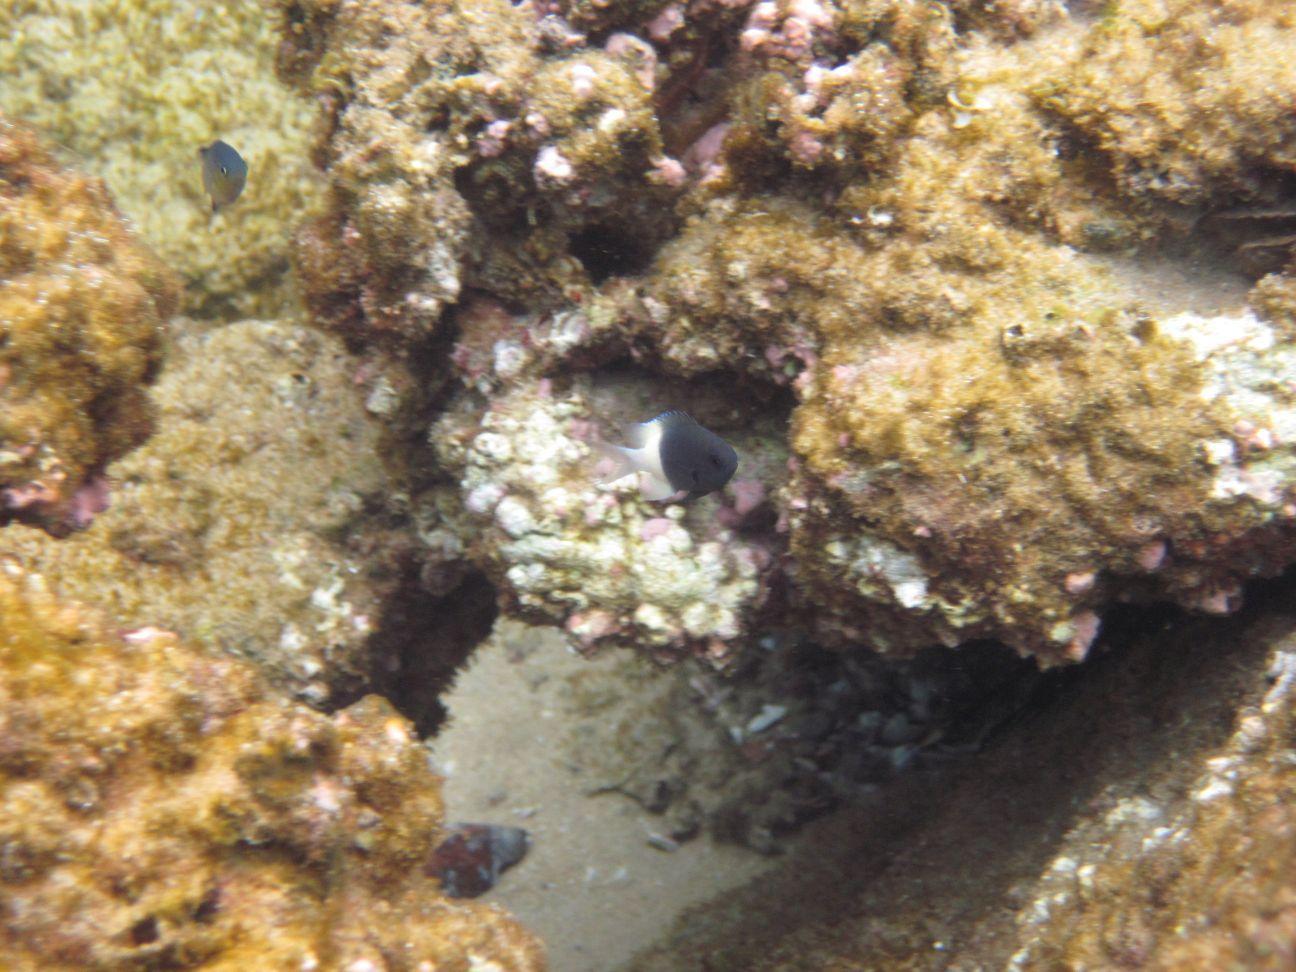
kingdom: Animalia
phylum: Chordata
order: Perciformes
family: Pomacentridae
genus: Chromis
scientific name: Chromis fieldi
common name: Chocolatedip chromis
